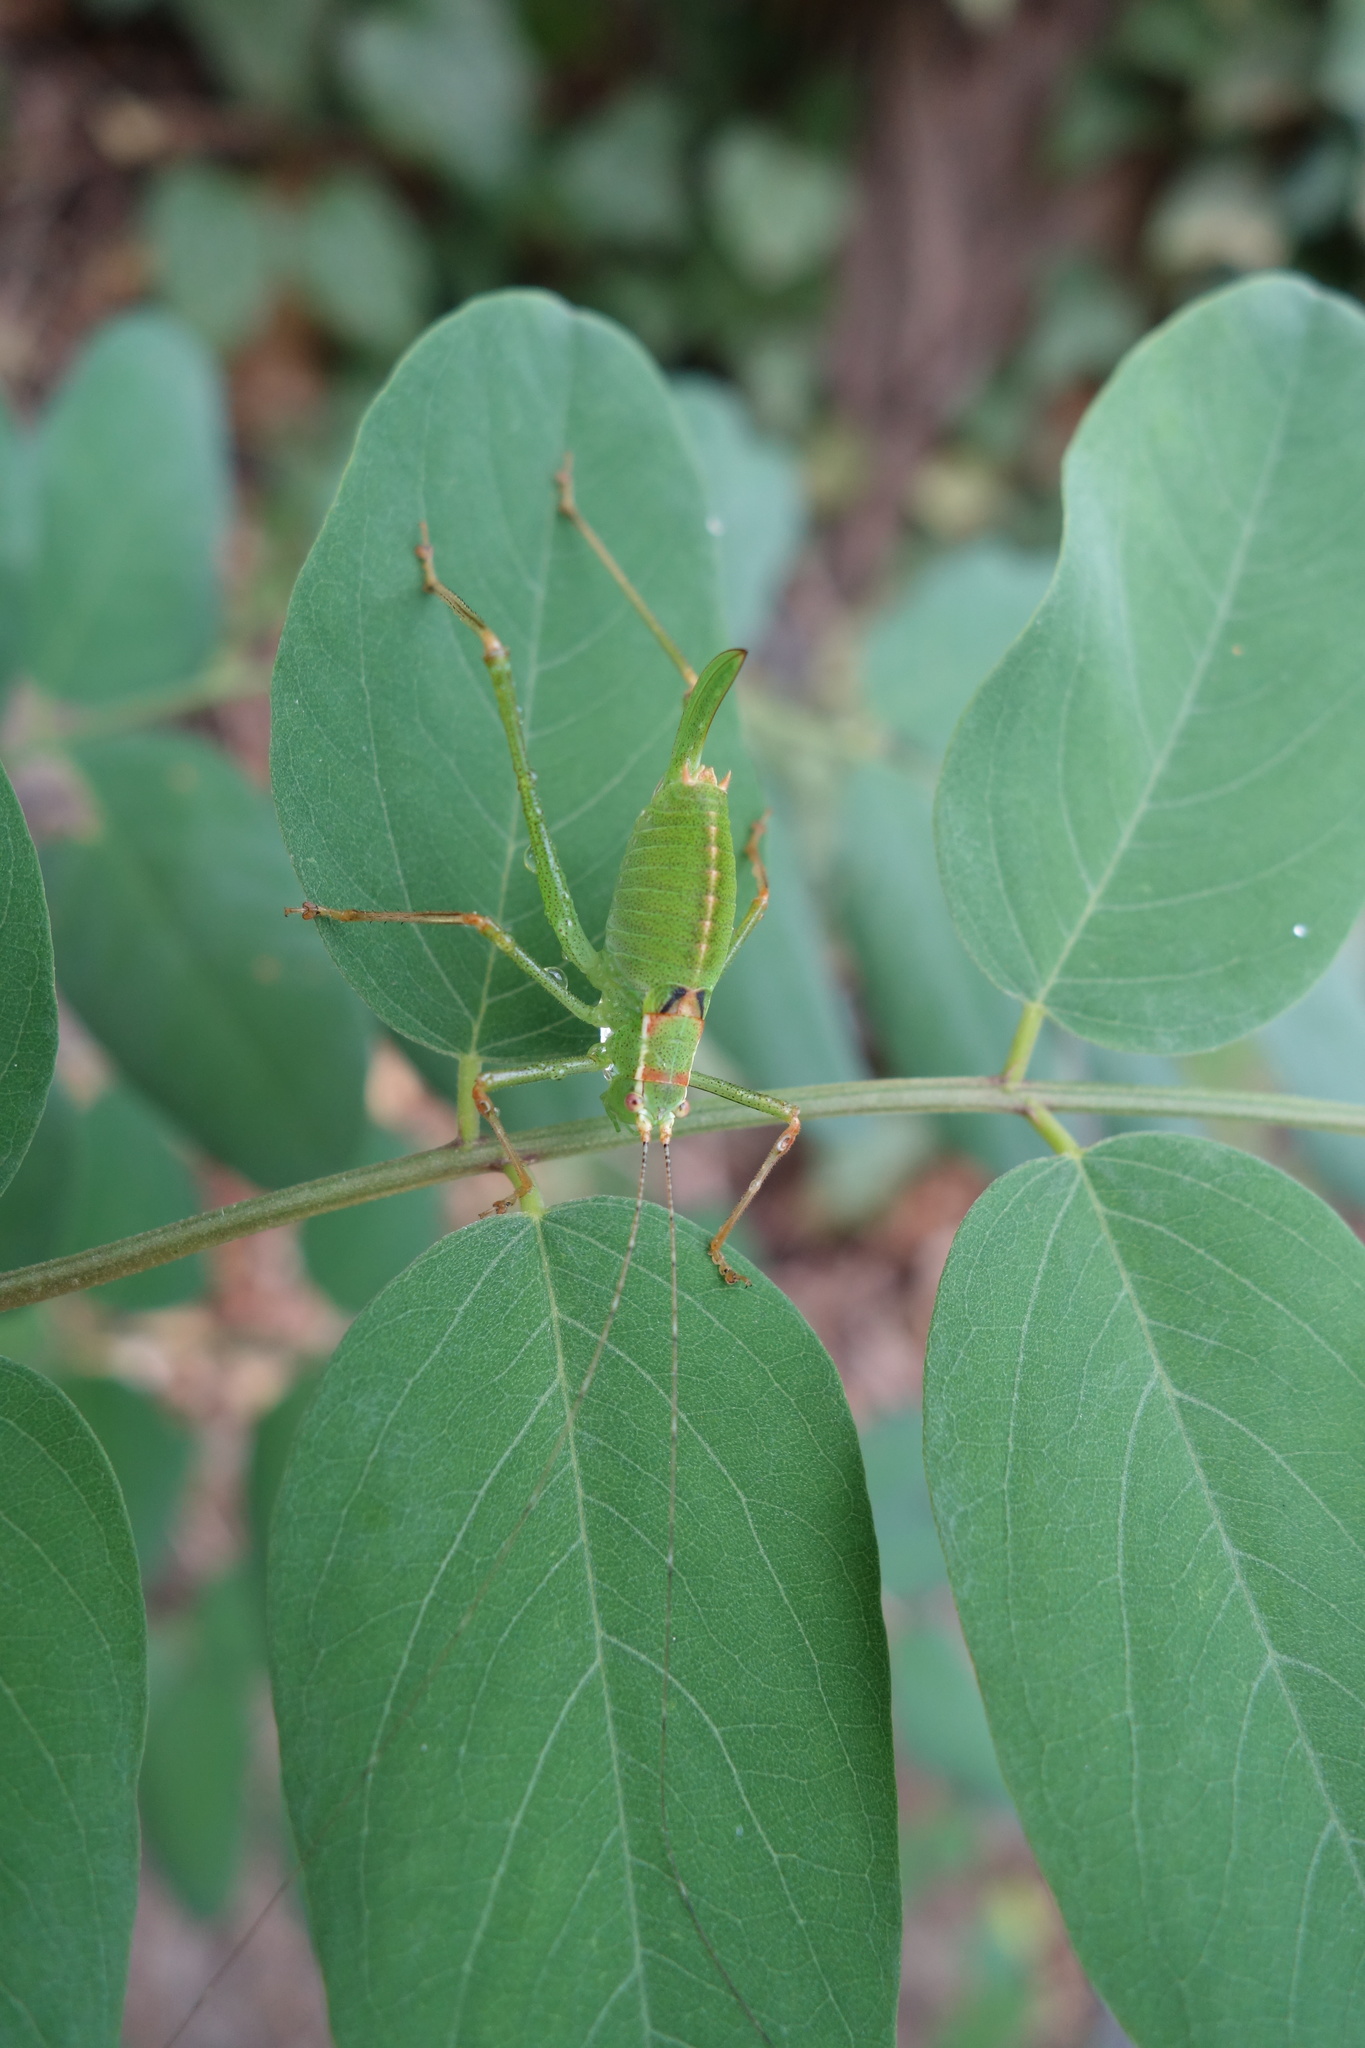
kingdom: Animalia
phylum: Arthropoda
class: Insecta
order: Orthoptera
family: Tettigoniidae
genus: Leptophyes
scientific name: Leptophyes punctatissima
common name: Speckled bush-cricket
